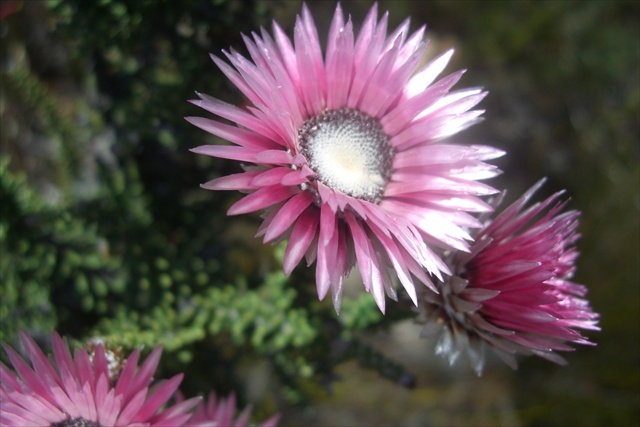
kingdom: Plantae
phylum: Tracheophyta
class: Magnoliopsida
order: Asterales
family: Asteraceae
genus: Phaenocoma
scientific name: Phaenocoma prolifera
